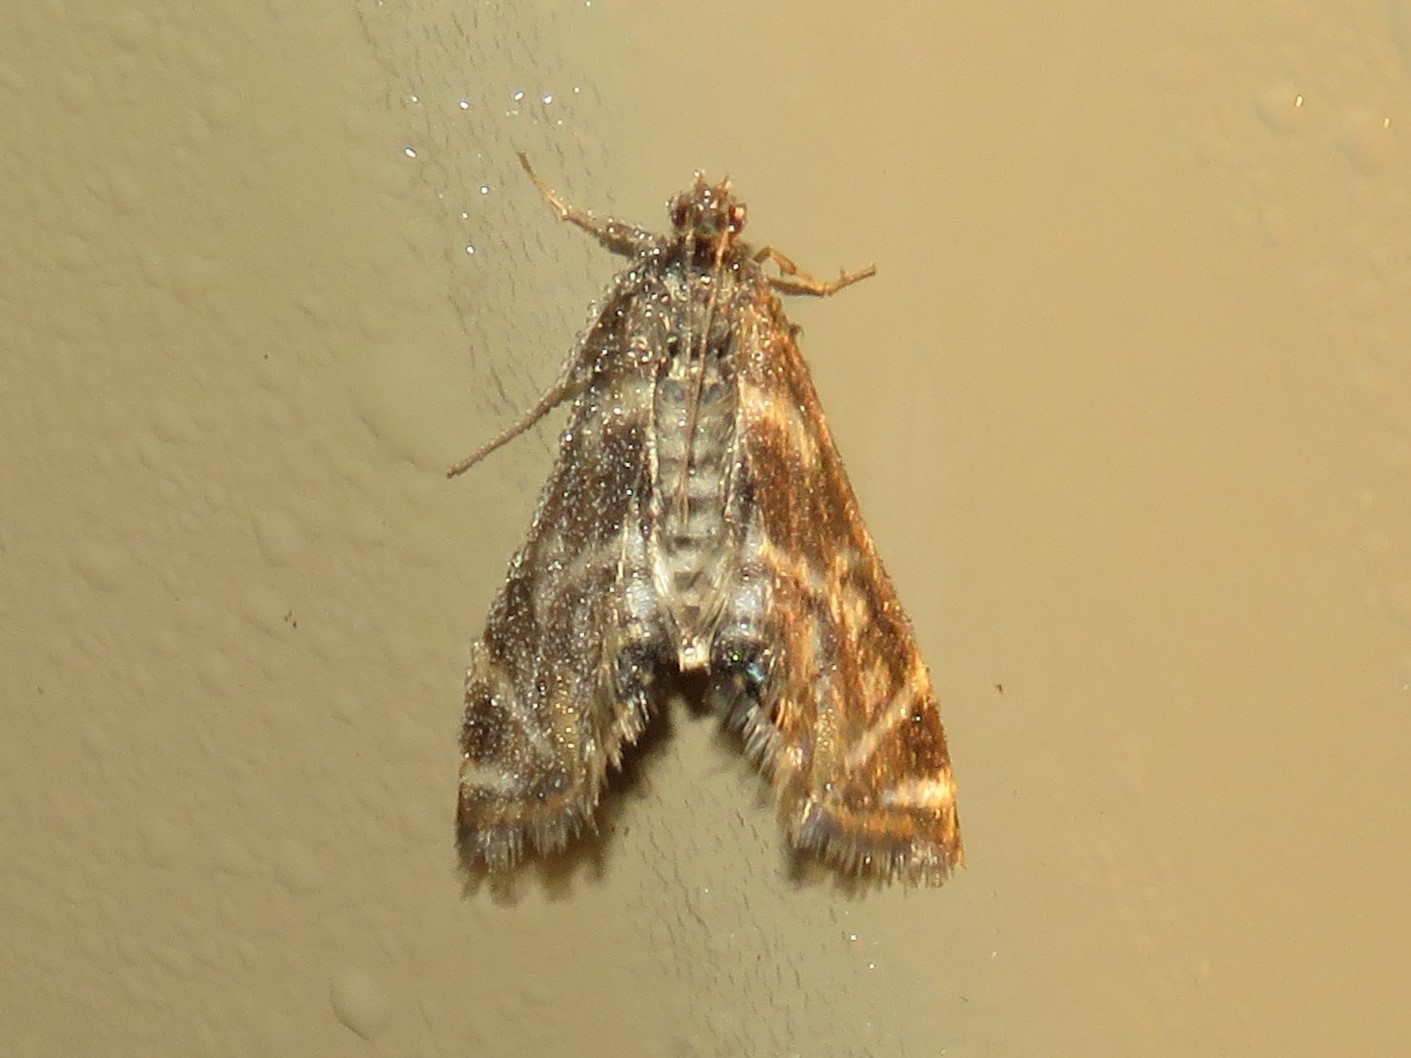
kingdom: Animalia
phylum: Arthropoda
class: Insecta
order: Lepidoptera
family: Crambidae
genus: Petrophila
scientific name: Petrophila canadensis
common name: Canadian petrophila
